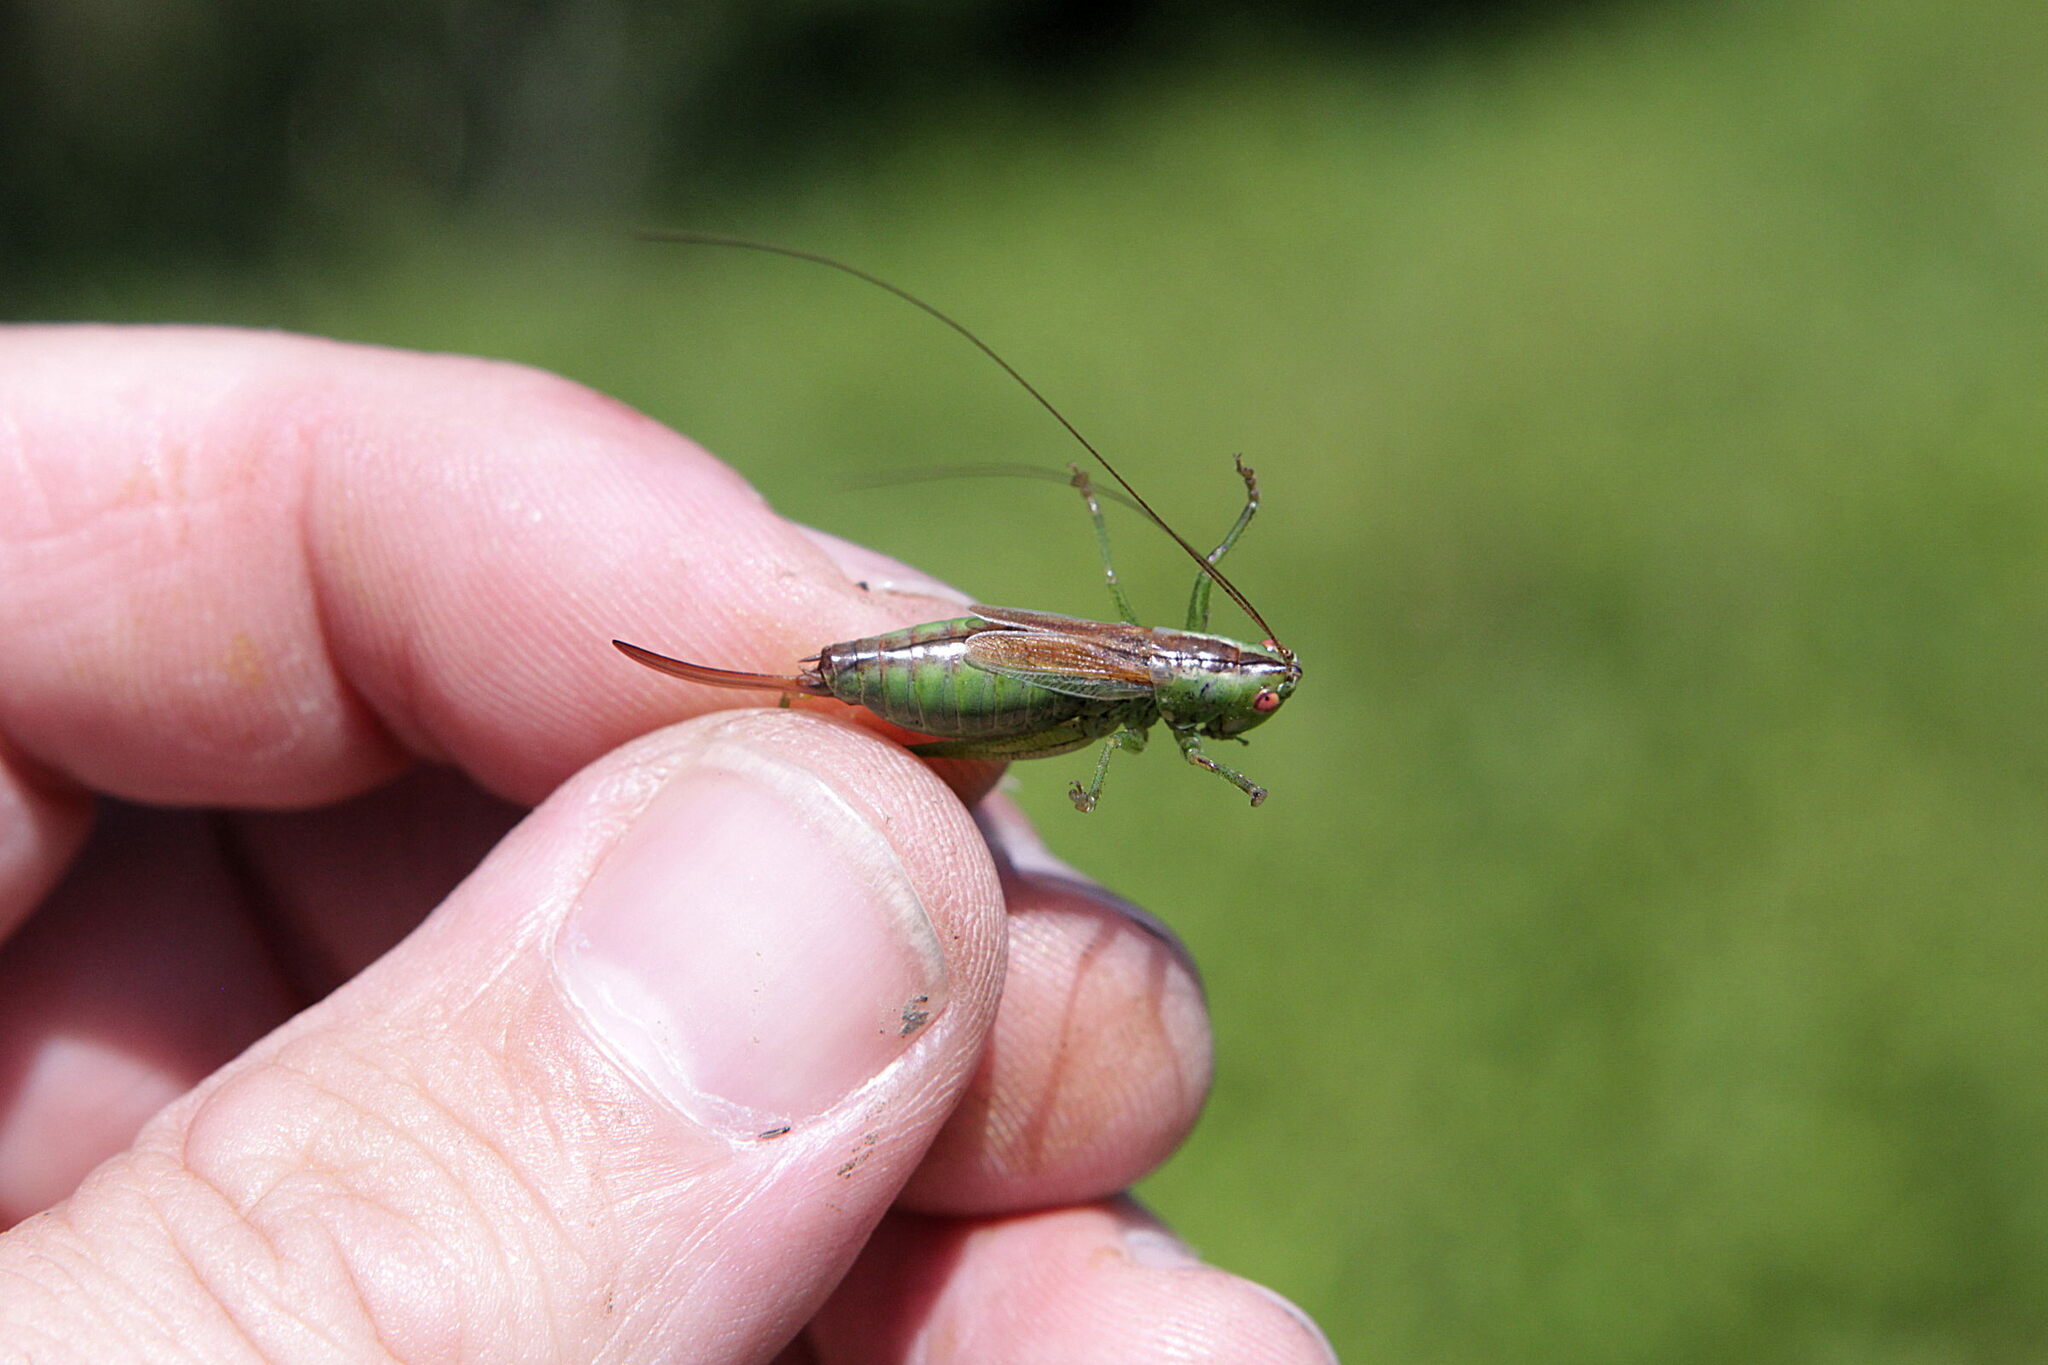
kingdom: Animalia
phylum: Arthropoda
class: Insecta
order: Orthoptera
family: Tettigoniidae
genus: Conocephalus
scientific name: Conocephalus dorsalis
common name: Short-winged conehead
